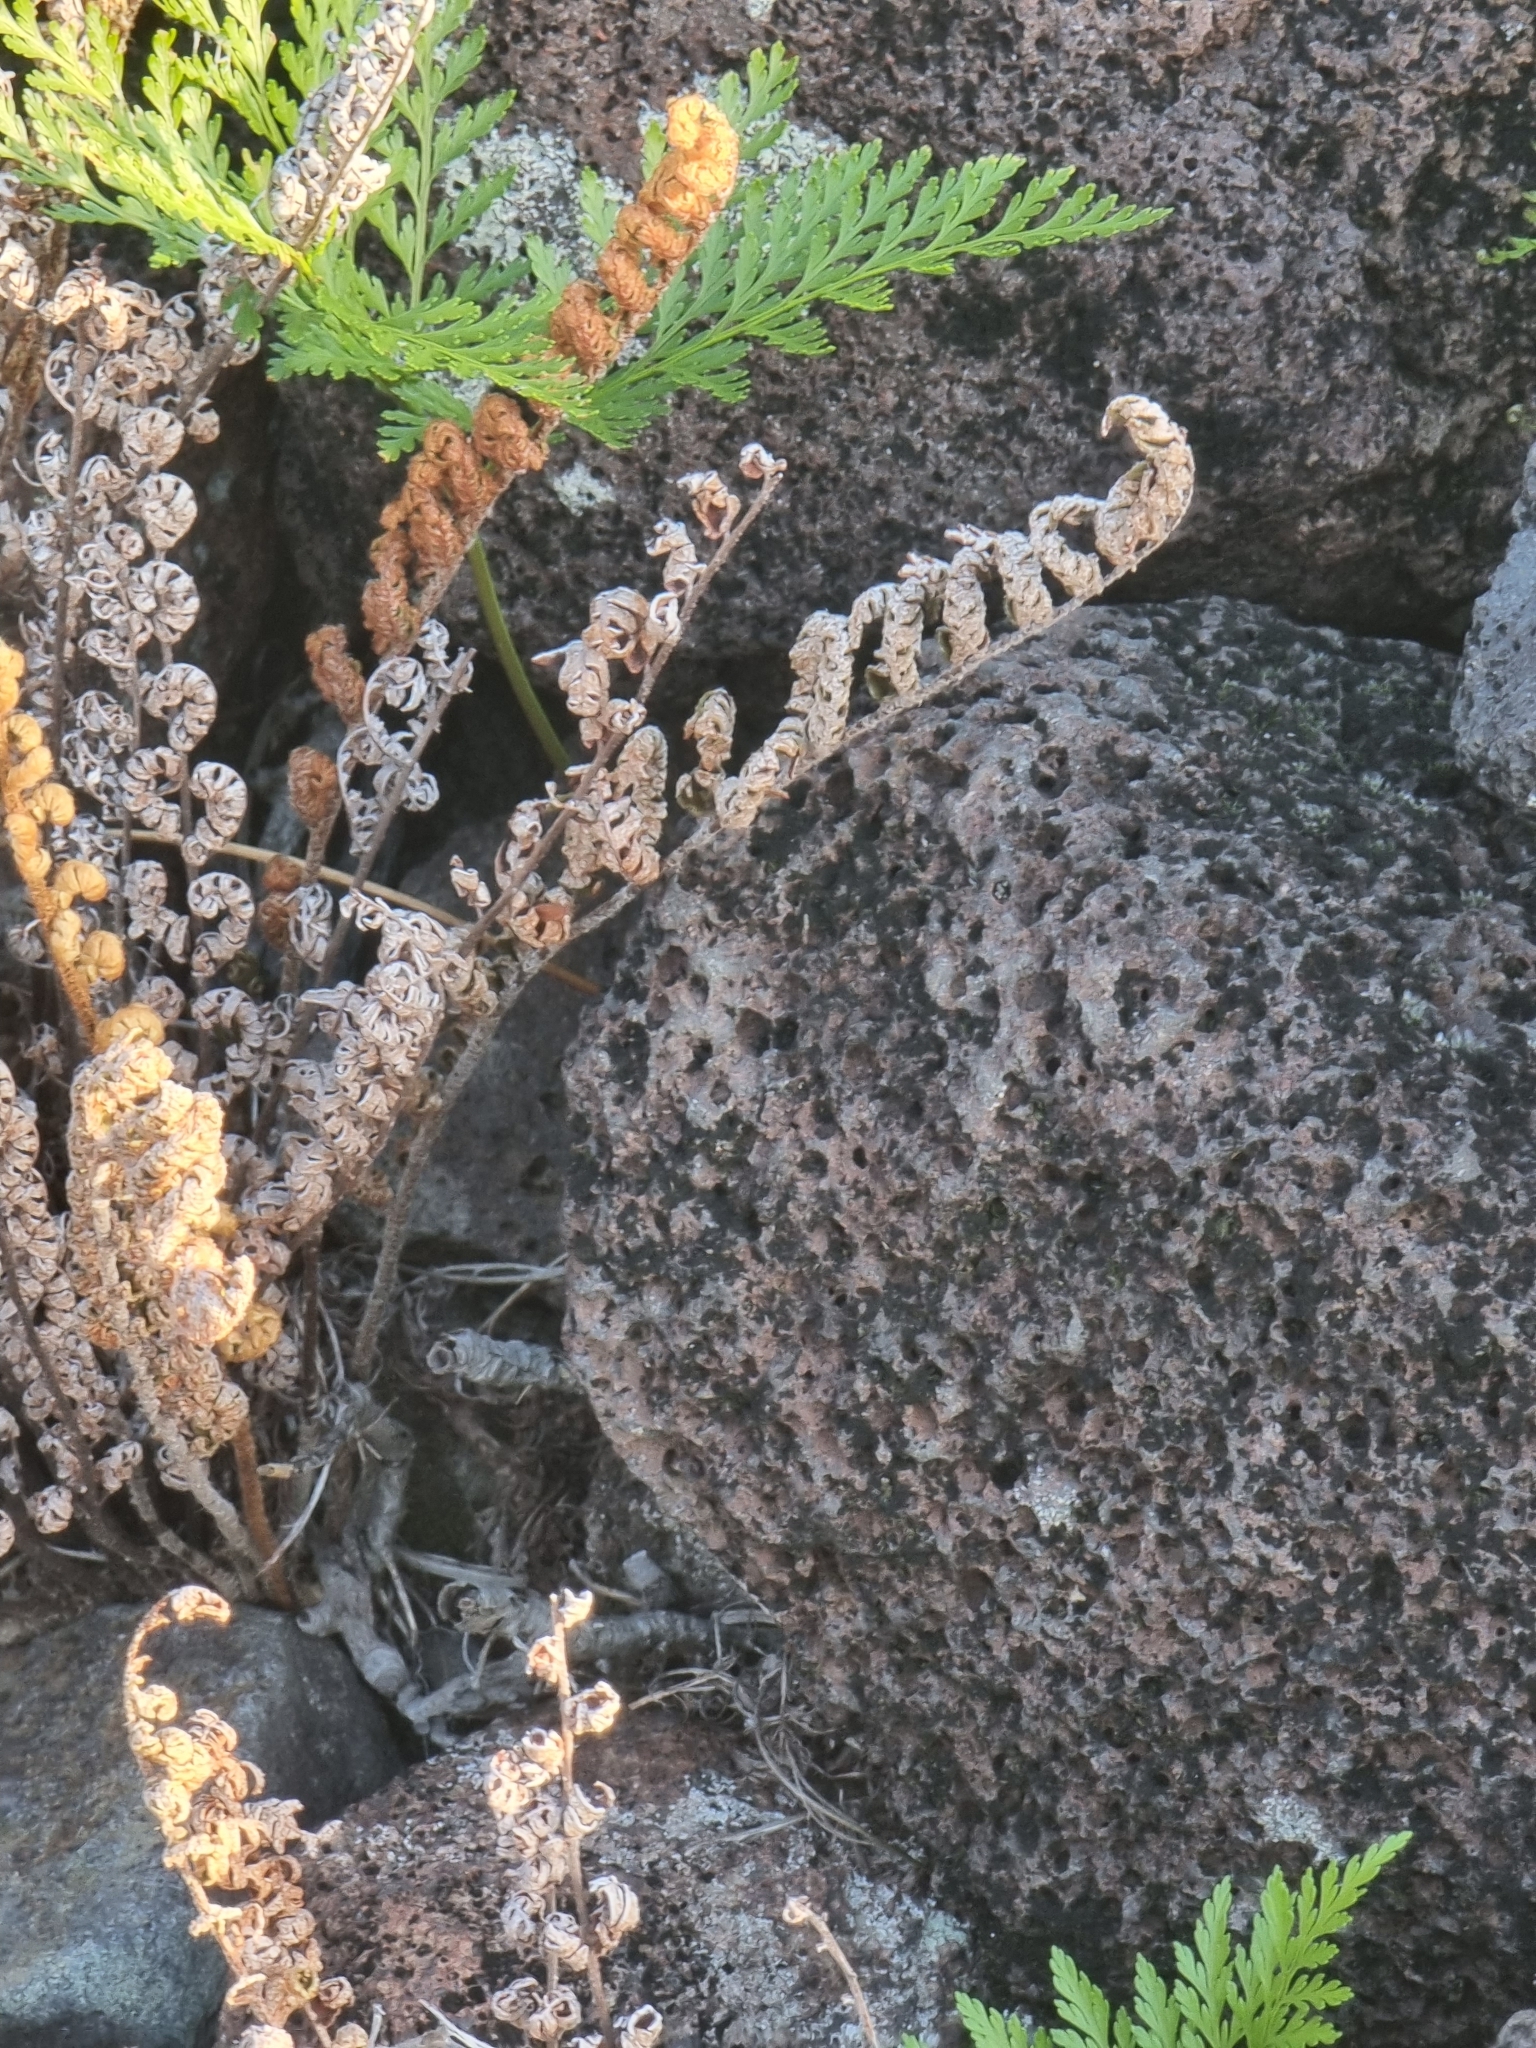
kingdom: Plantae
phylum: Tracheophyta
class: Polypodiopsida
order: Polypodiales
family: Pteridaceae
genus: Paragymnopteris
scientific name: Paragymnopteris marantae
